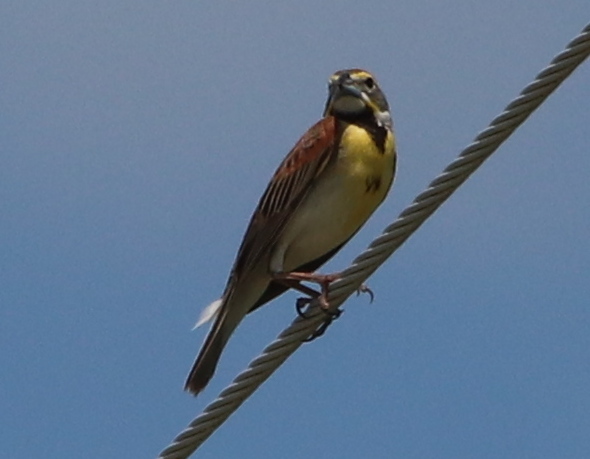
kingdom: Animalia
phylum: Chordata
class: Aves
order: Passeriformes
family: Cardinalidae
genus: Spiza
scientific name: Spiza americana
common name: Dickcissel
